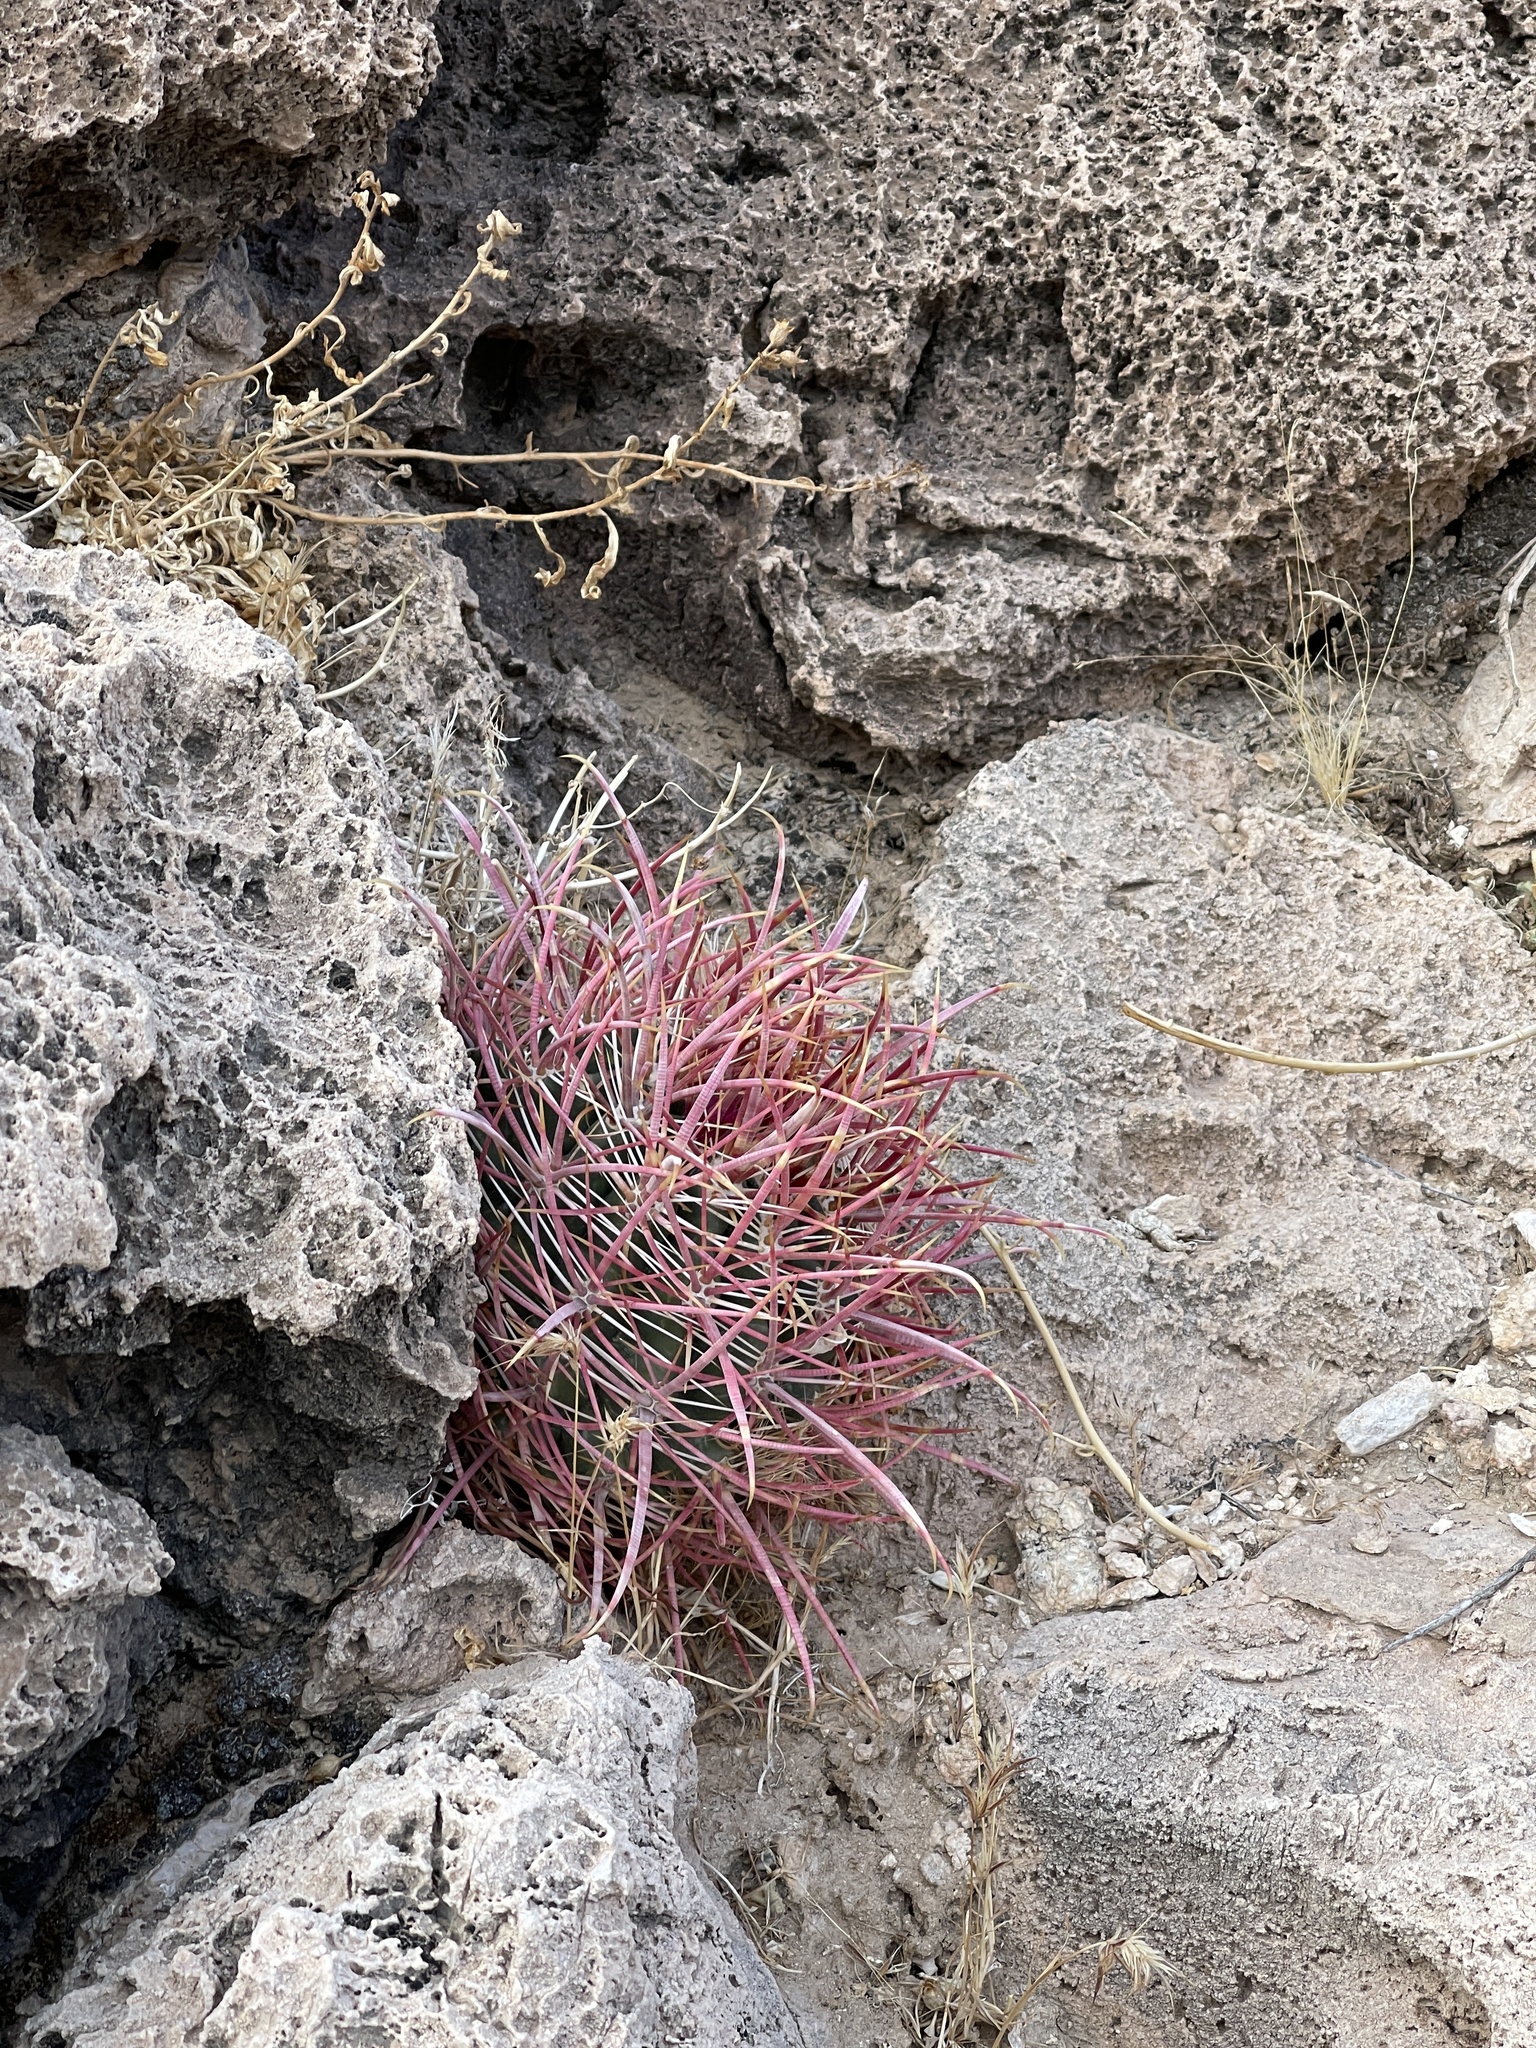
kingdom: Plantae
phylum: Tracheophyta
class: Magnoliopsida
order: Caryophyllales
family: Cactaceae
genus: Ferocactus
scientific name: Ferocactus cylindraceus
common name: California barrel cactus
